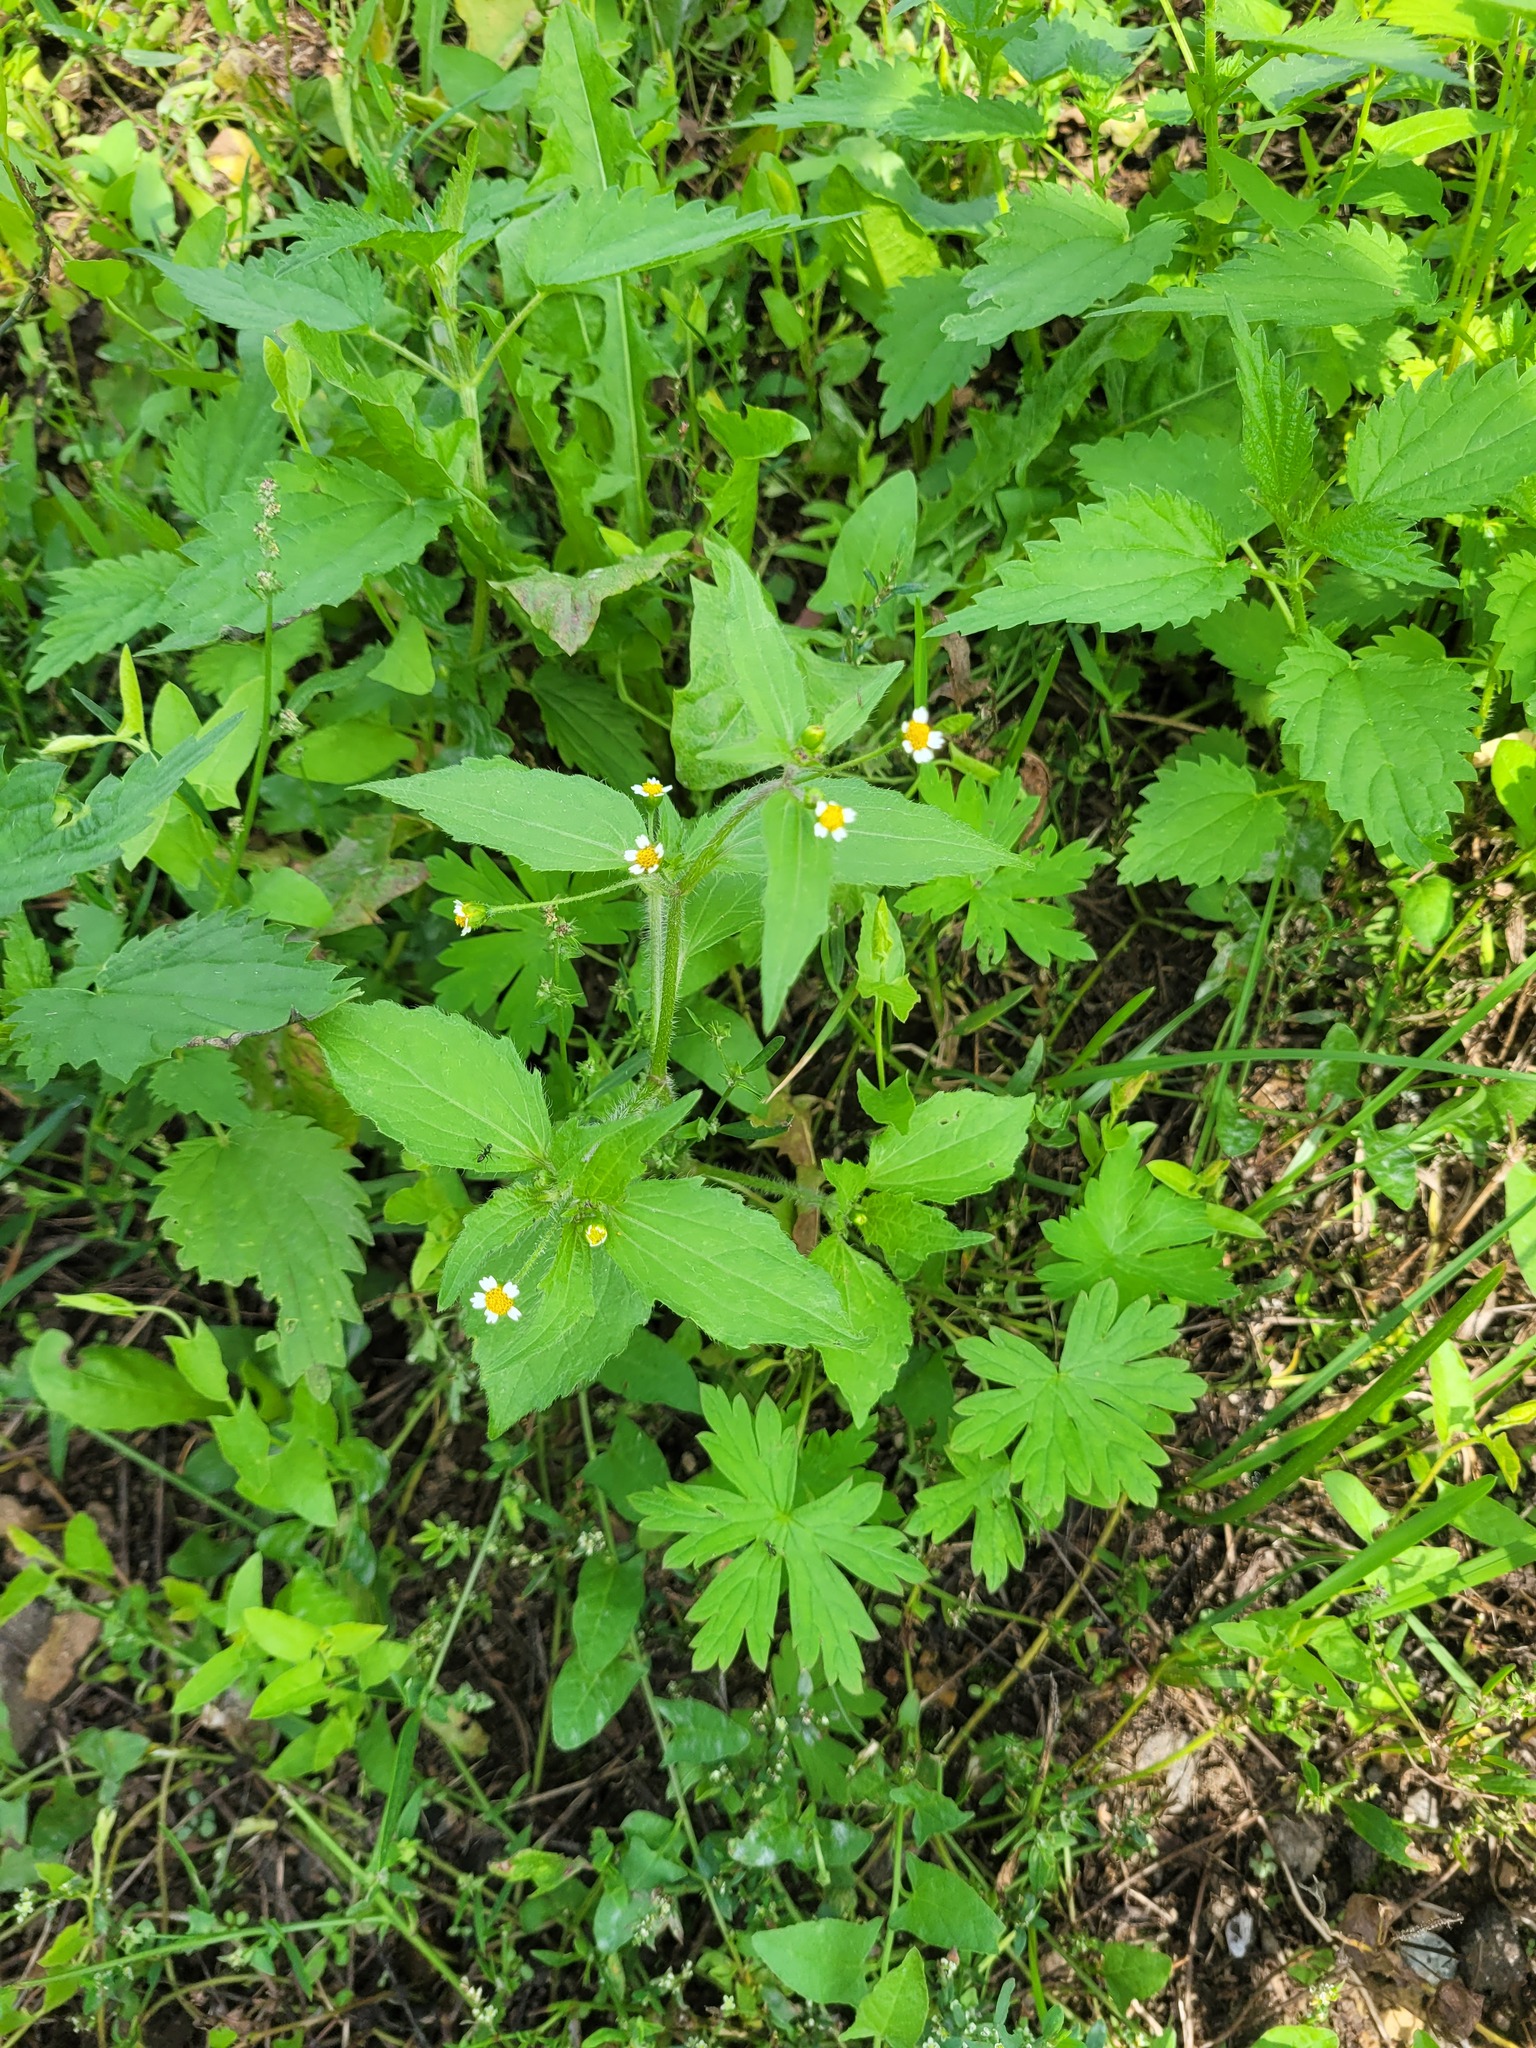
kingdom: Plantae
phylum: Tracheophyta
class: Magnoliopsida
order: Asterales
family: Asteraceae
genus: Galinsoga
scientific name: Galinsoga quadriradiata
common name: Shaggy soldier
